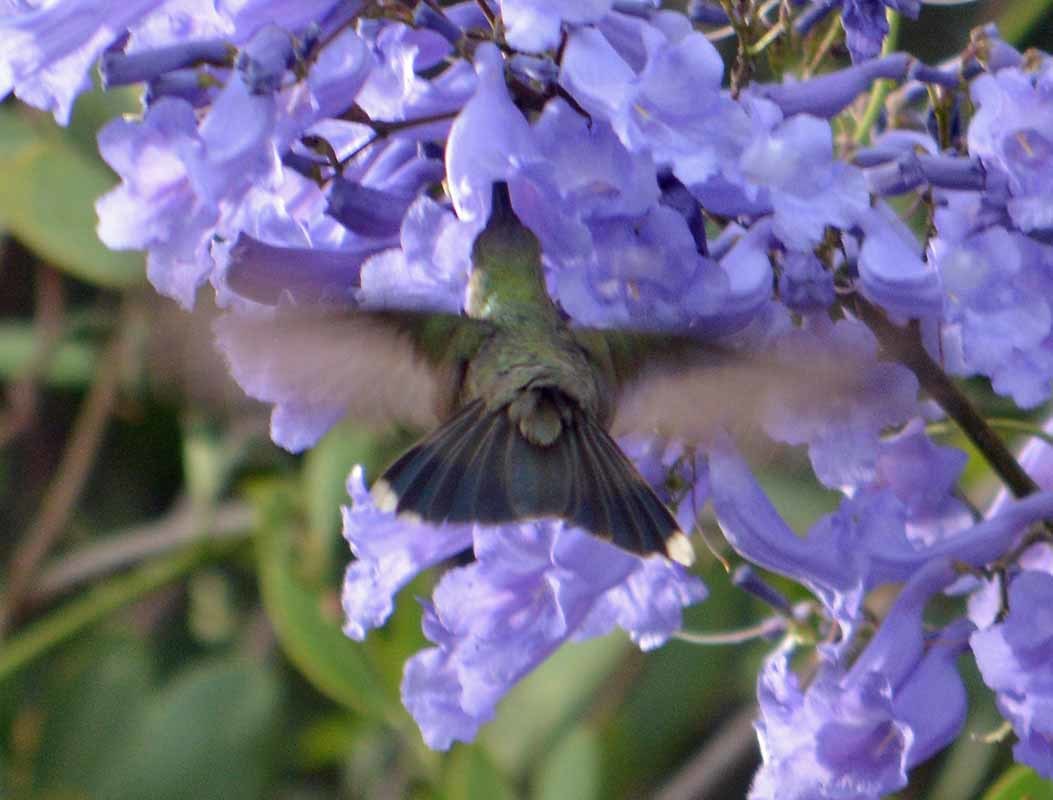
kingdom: Animalia
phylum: Chordata
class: Aves
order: Apodiformes
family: Trochilidae
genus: Cynanthus
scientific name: Cynanthus latirostris
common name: Broad-billed hummingbird
